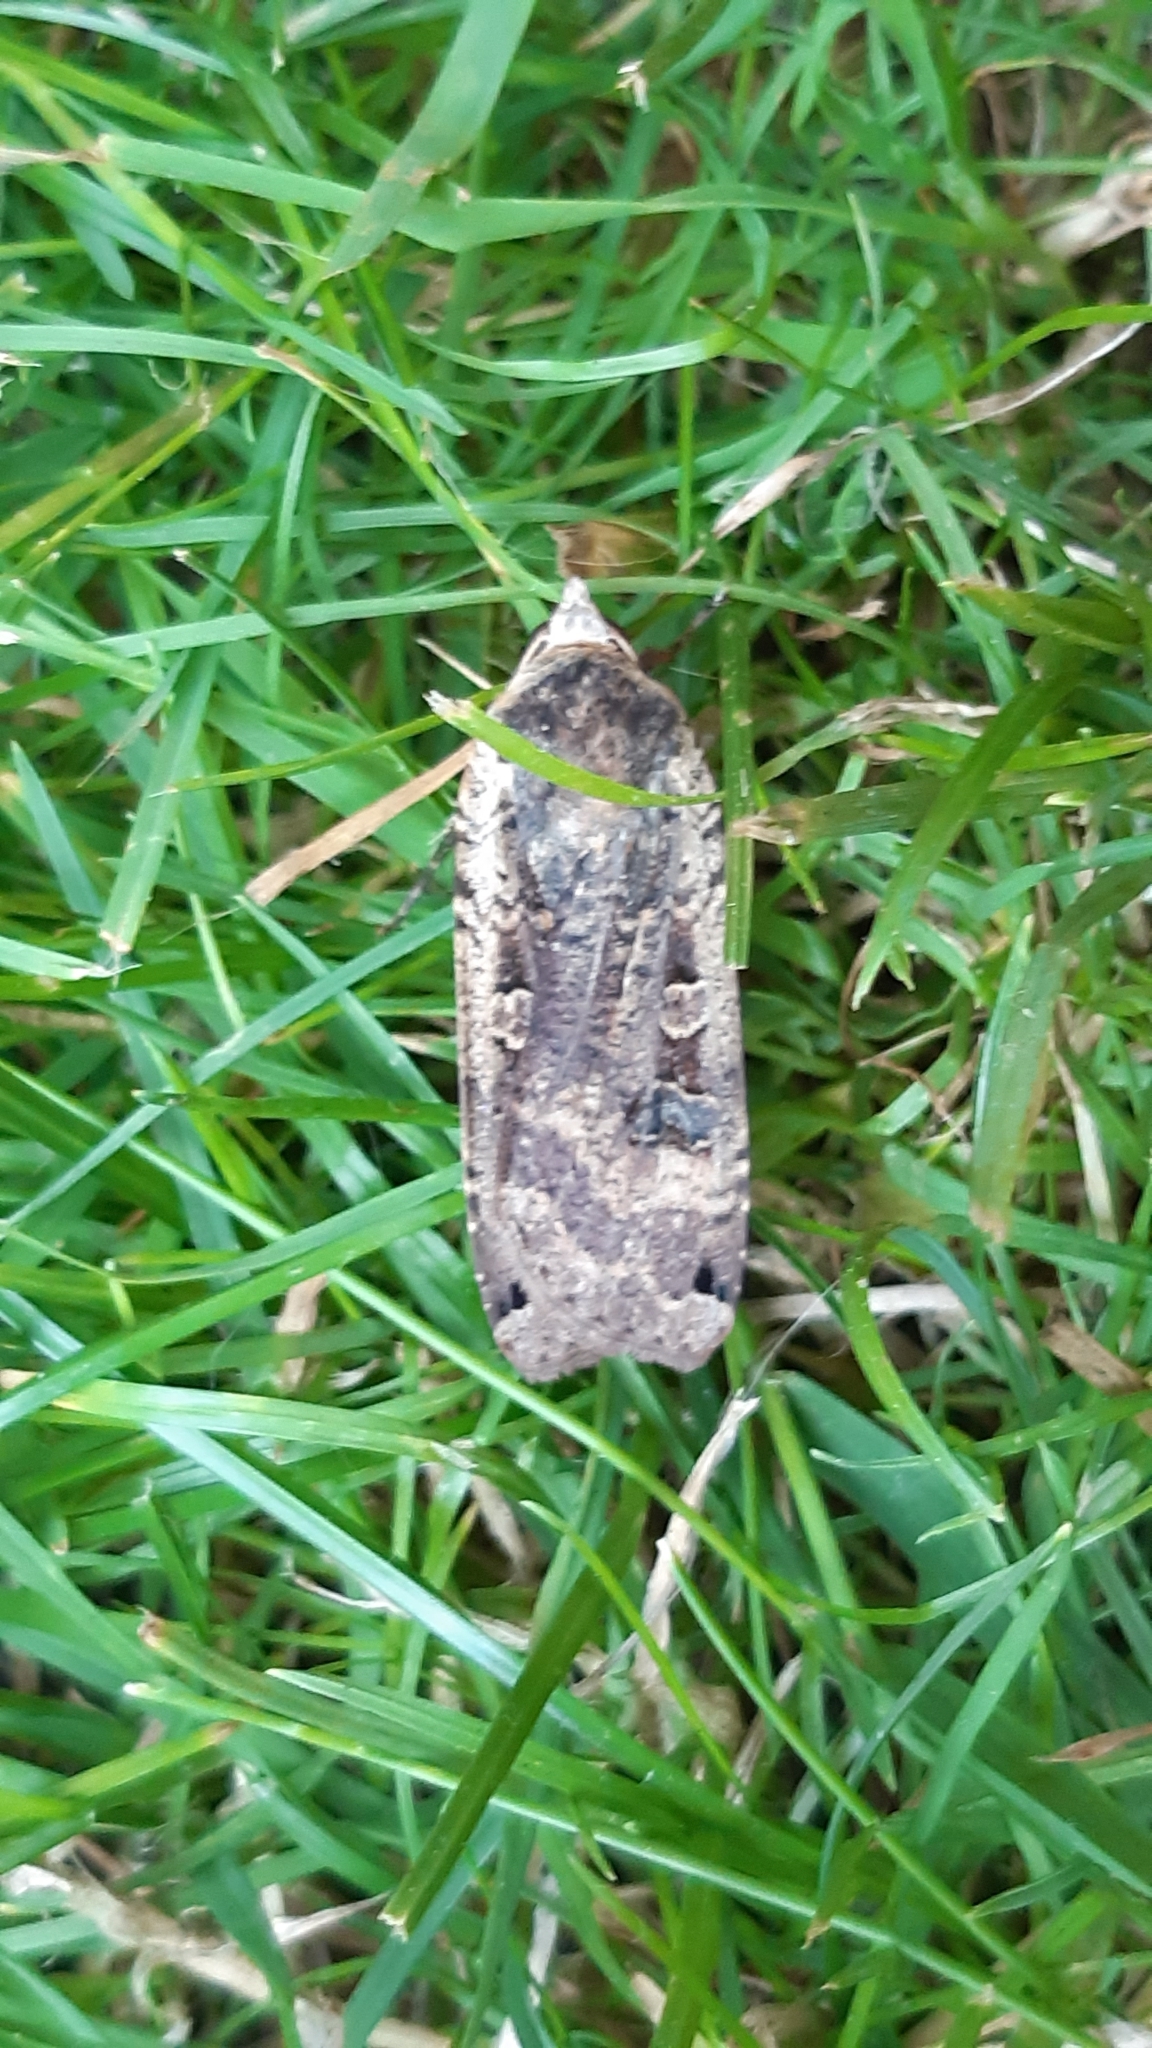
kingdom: Animalia
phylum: Arthropoda
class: Insecta
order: Lepidoptera
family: Noctuidae
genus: Noctua
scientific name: Noctua pronuba
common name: Large yellow underwing
